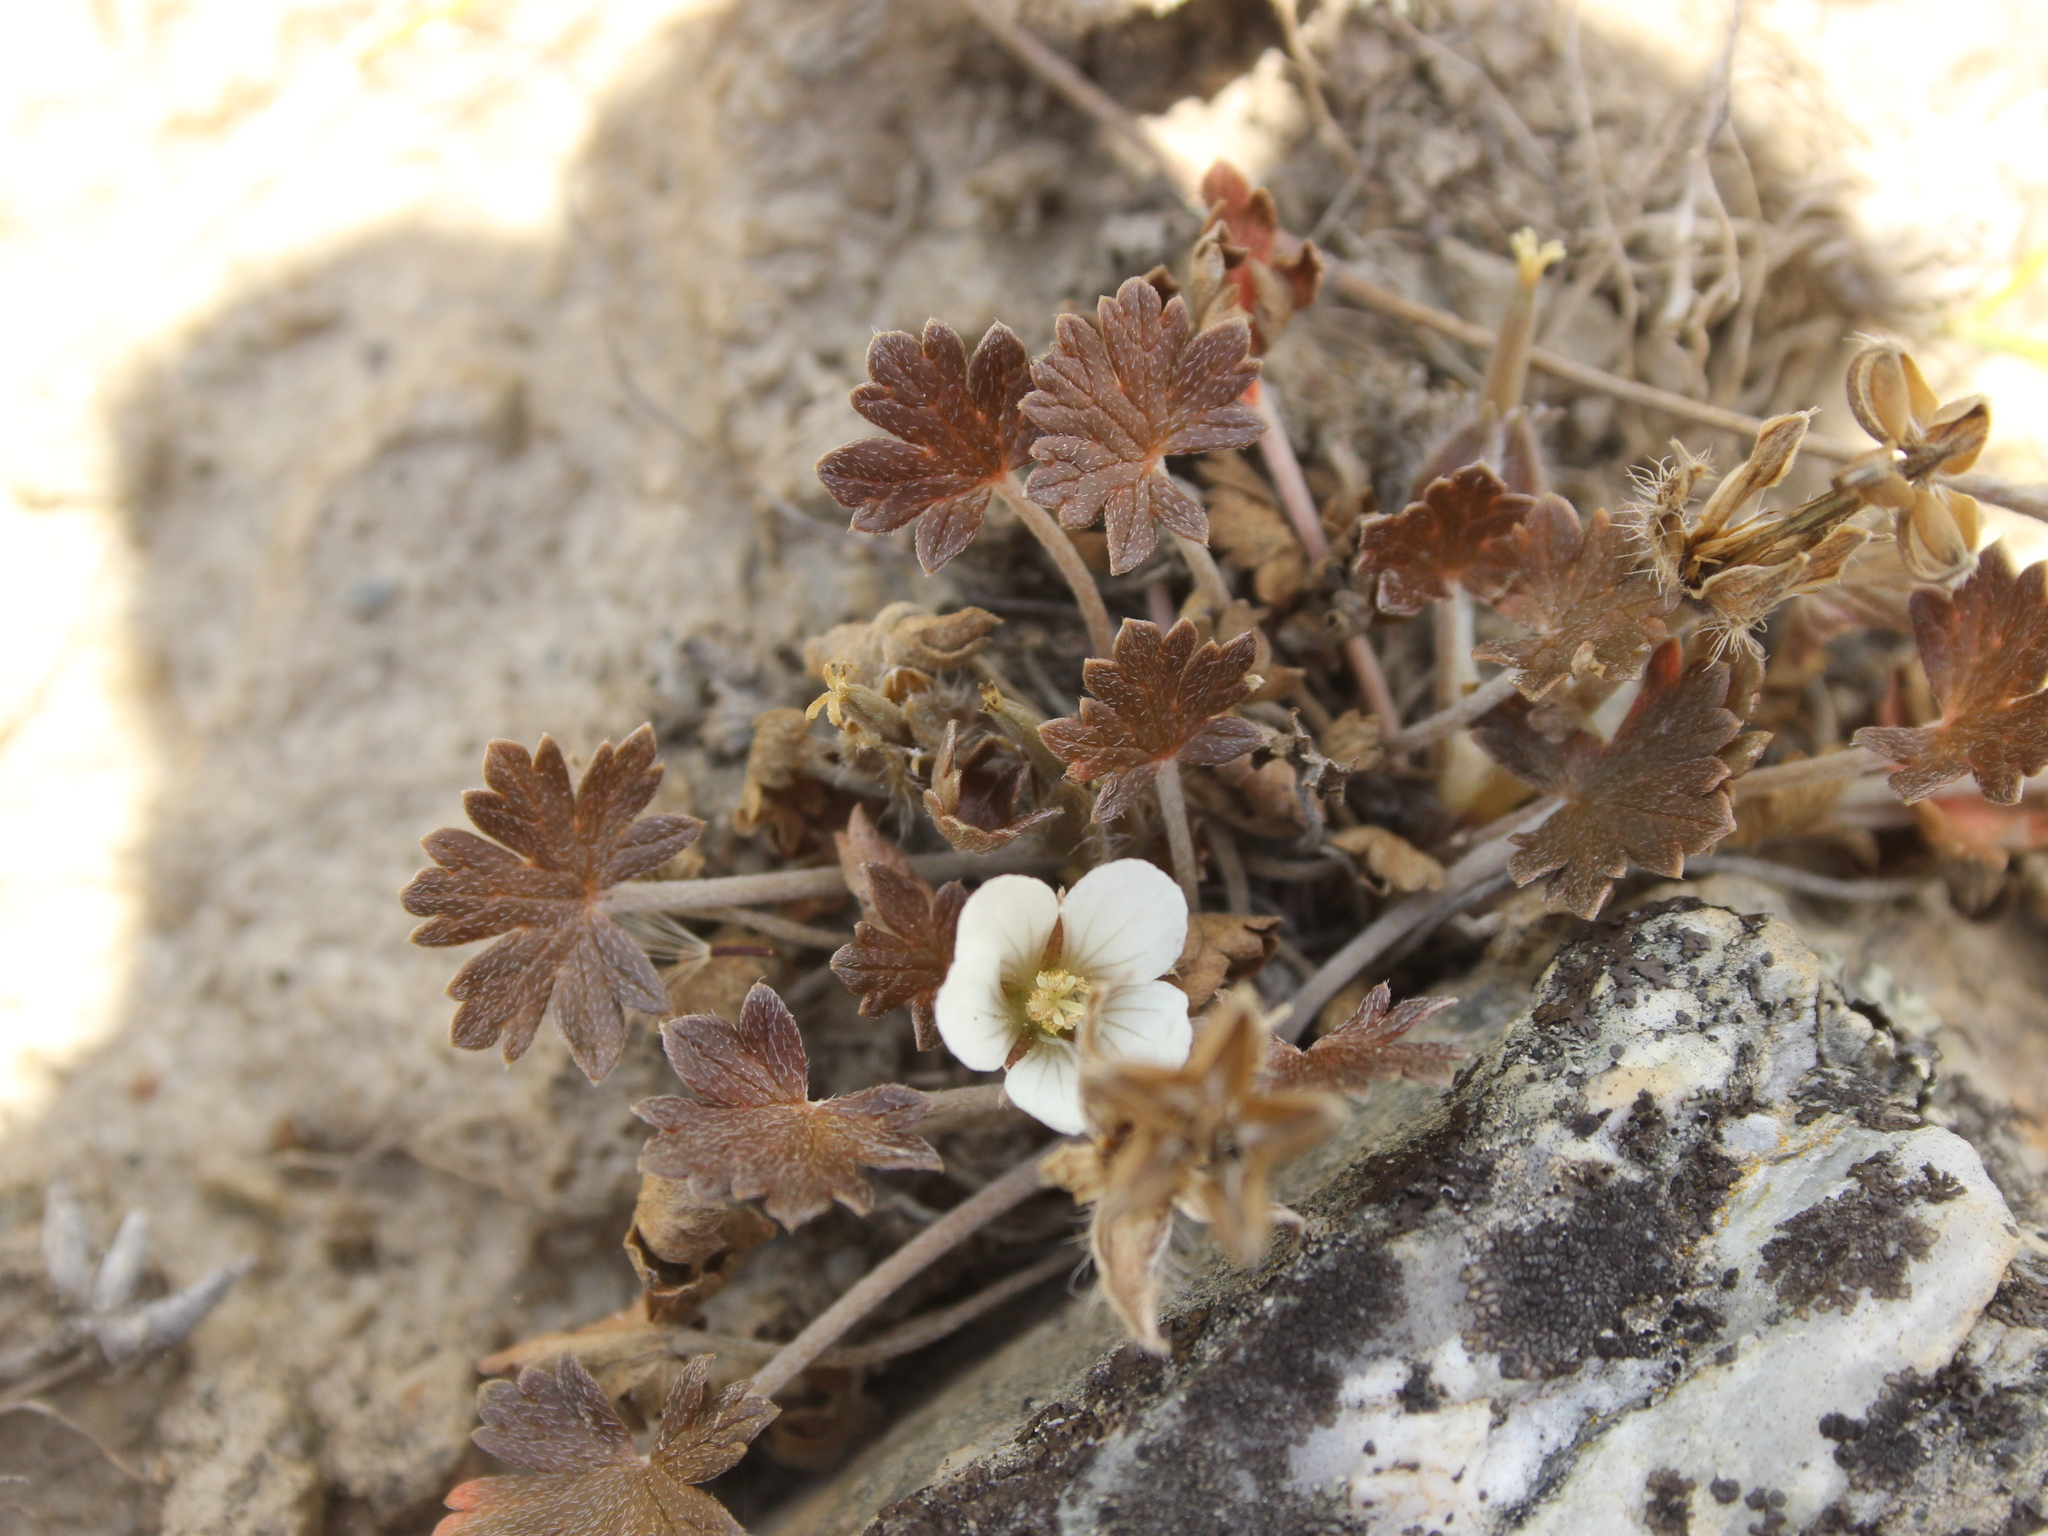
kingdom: Plantae
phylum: Tracheophyta
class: Magnoliopsida
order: Geraniales
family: Geraniaceae
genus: Geranium
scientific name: Geranium brevicaule
